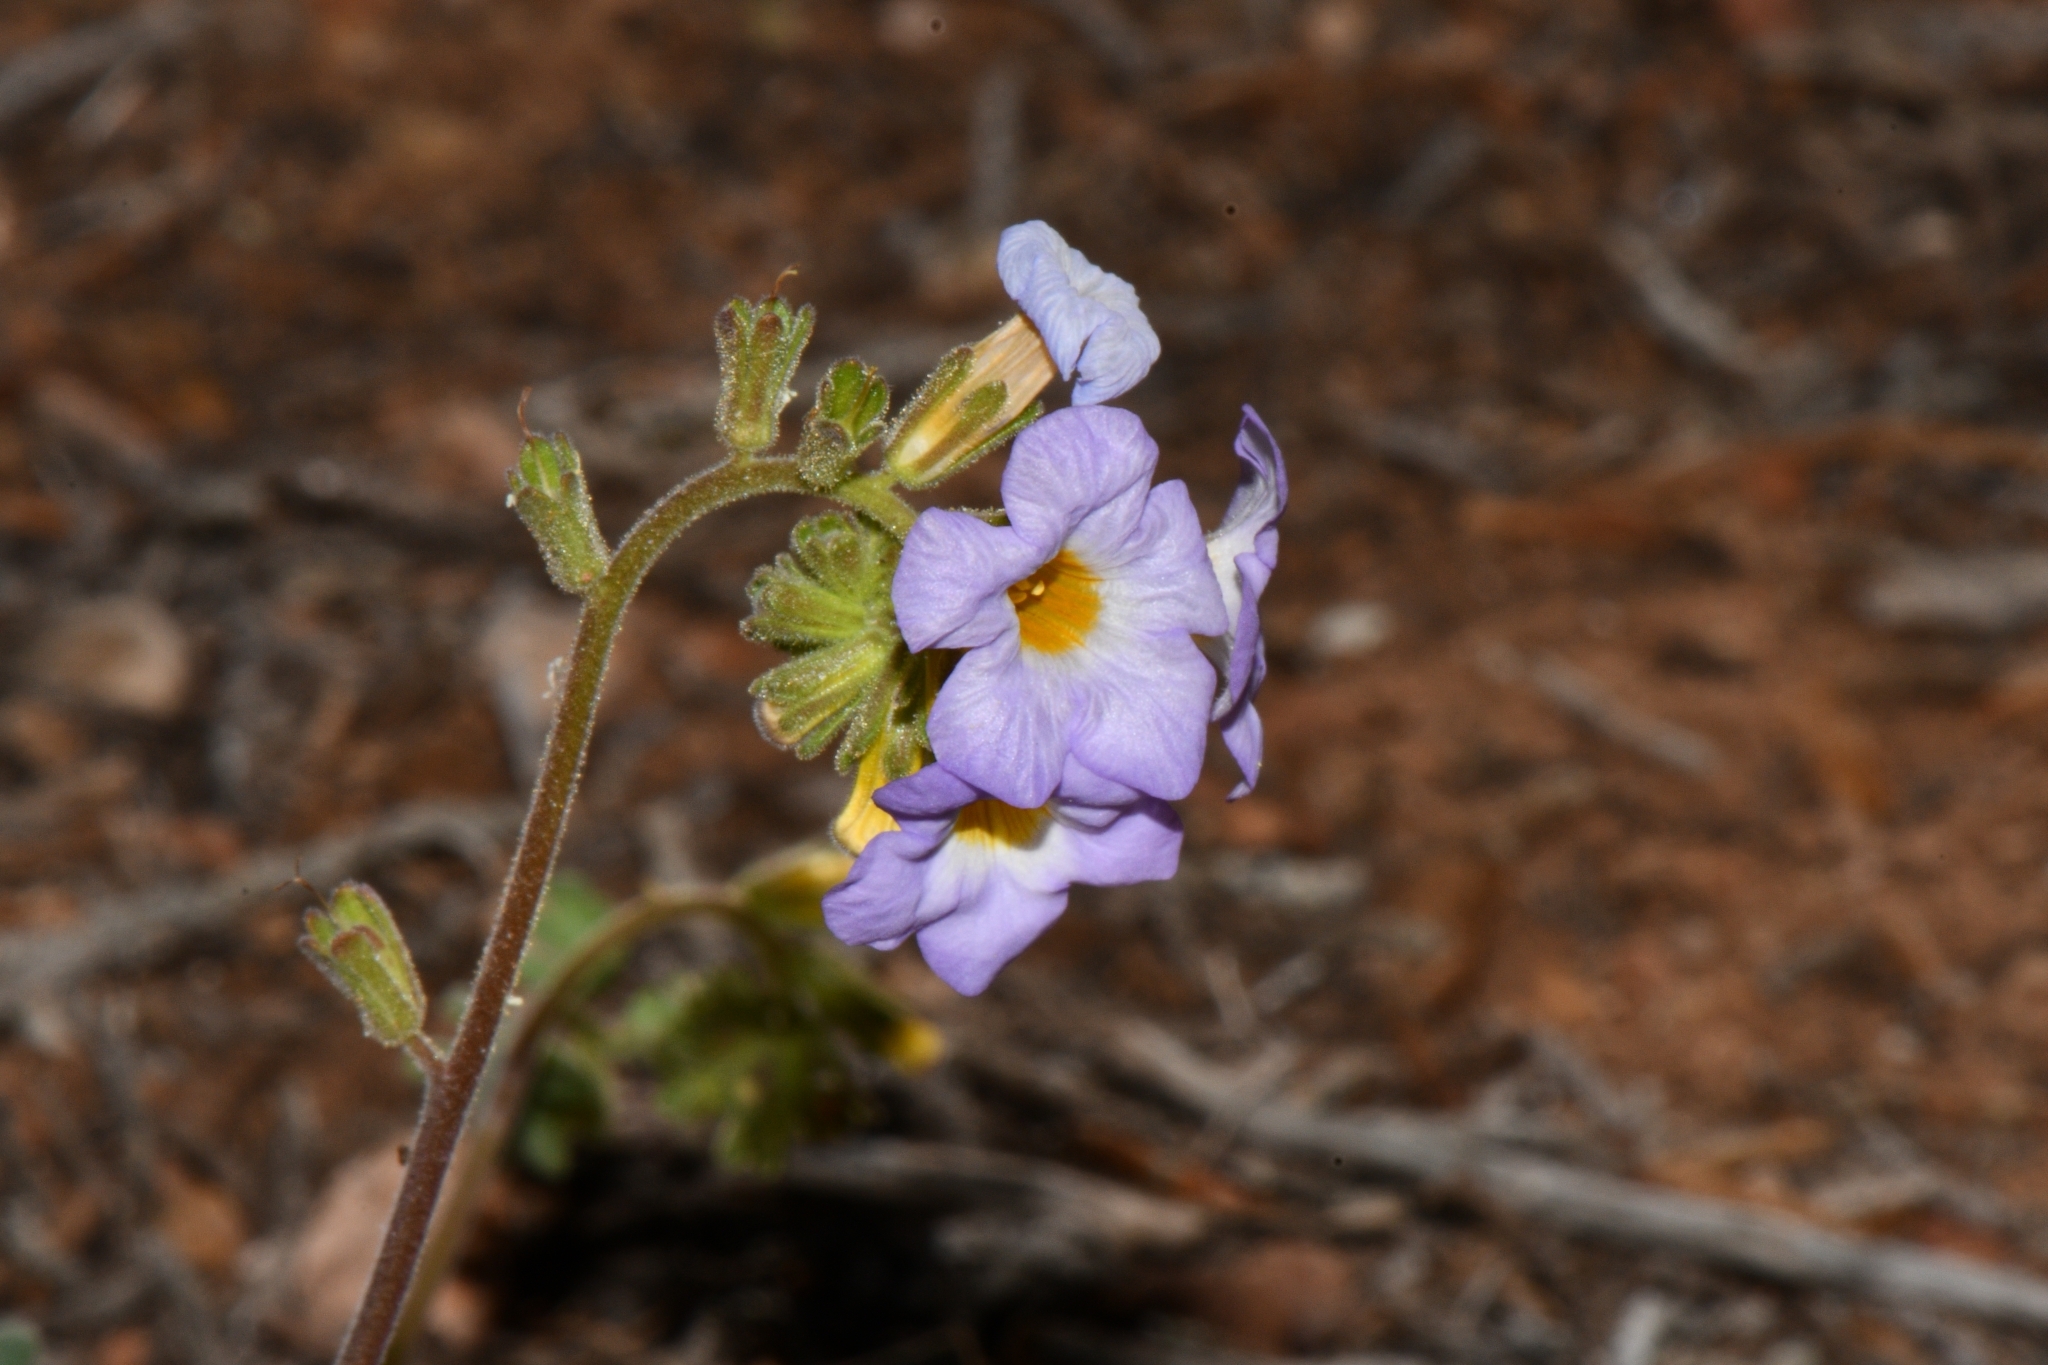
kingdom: Plantae
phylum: Tracheophyta
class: Magnoliopsida
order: Boraginales
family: Hydrophyllaceae
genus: Phacelia
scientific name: Phacelia fremontii
